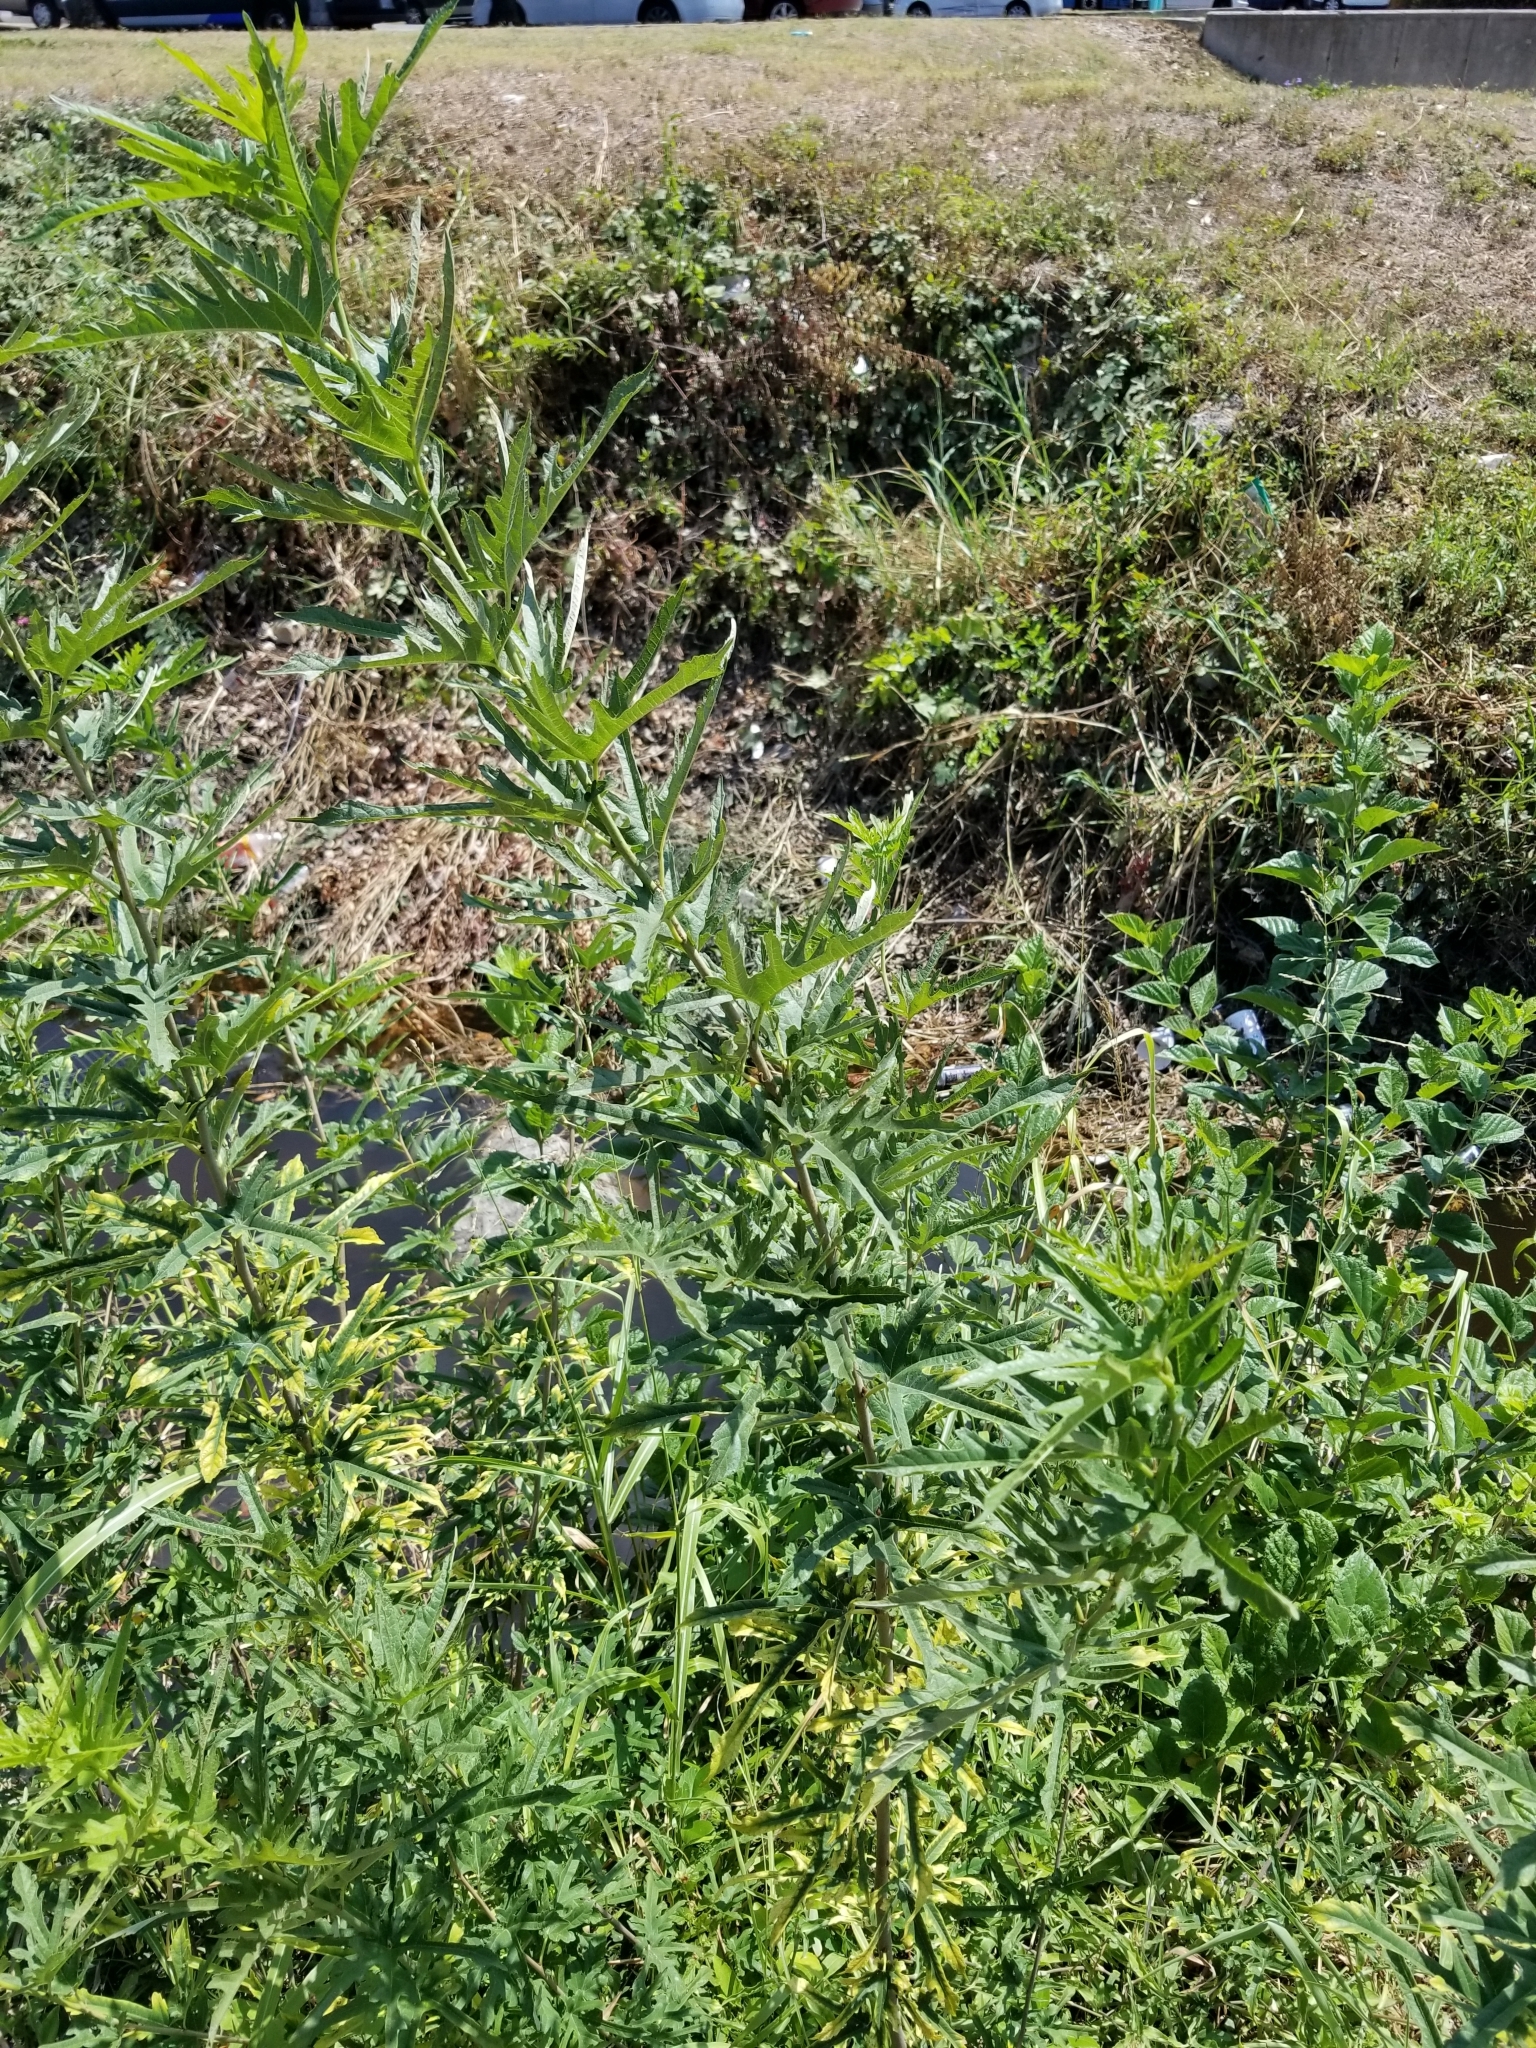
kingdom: Plantae
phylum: Tracheophyta
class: Magnoliopsida
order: Asterales
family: Asteraceae
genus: Ambrosia
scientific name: Ambrosia psilostachya
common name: Perennial ragweed
